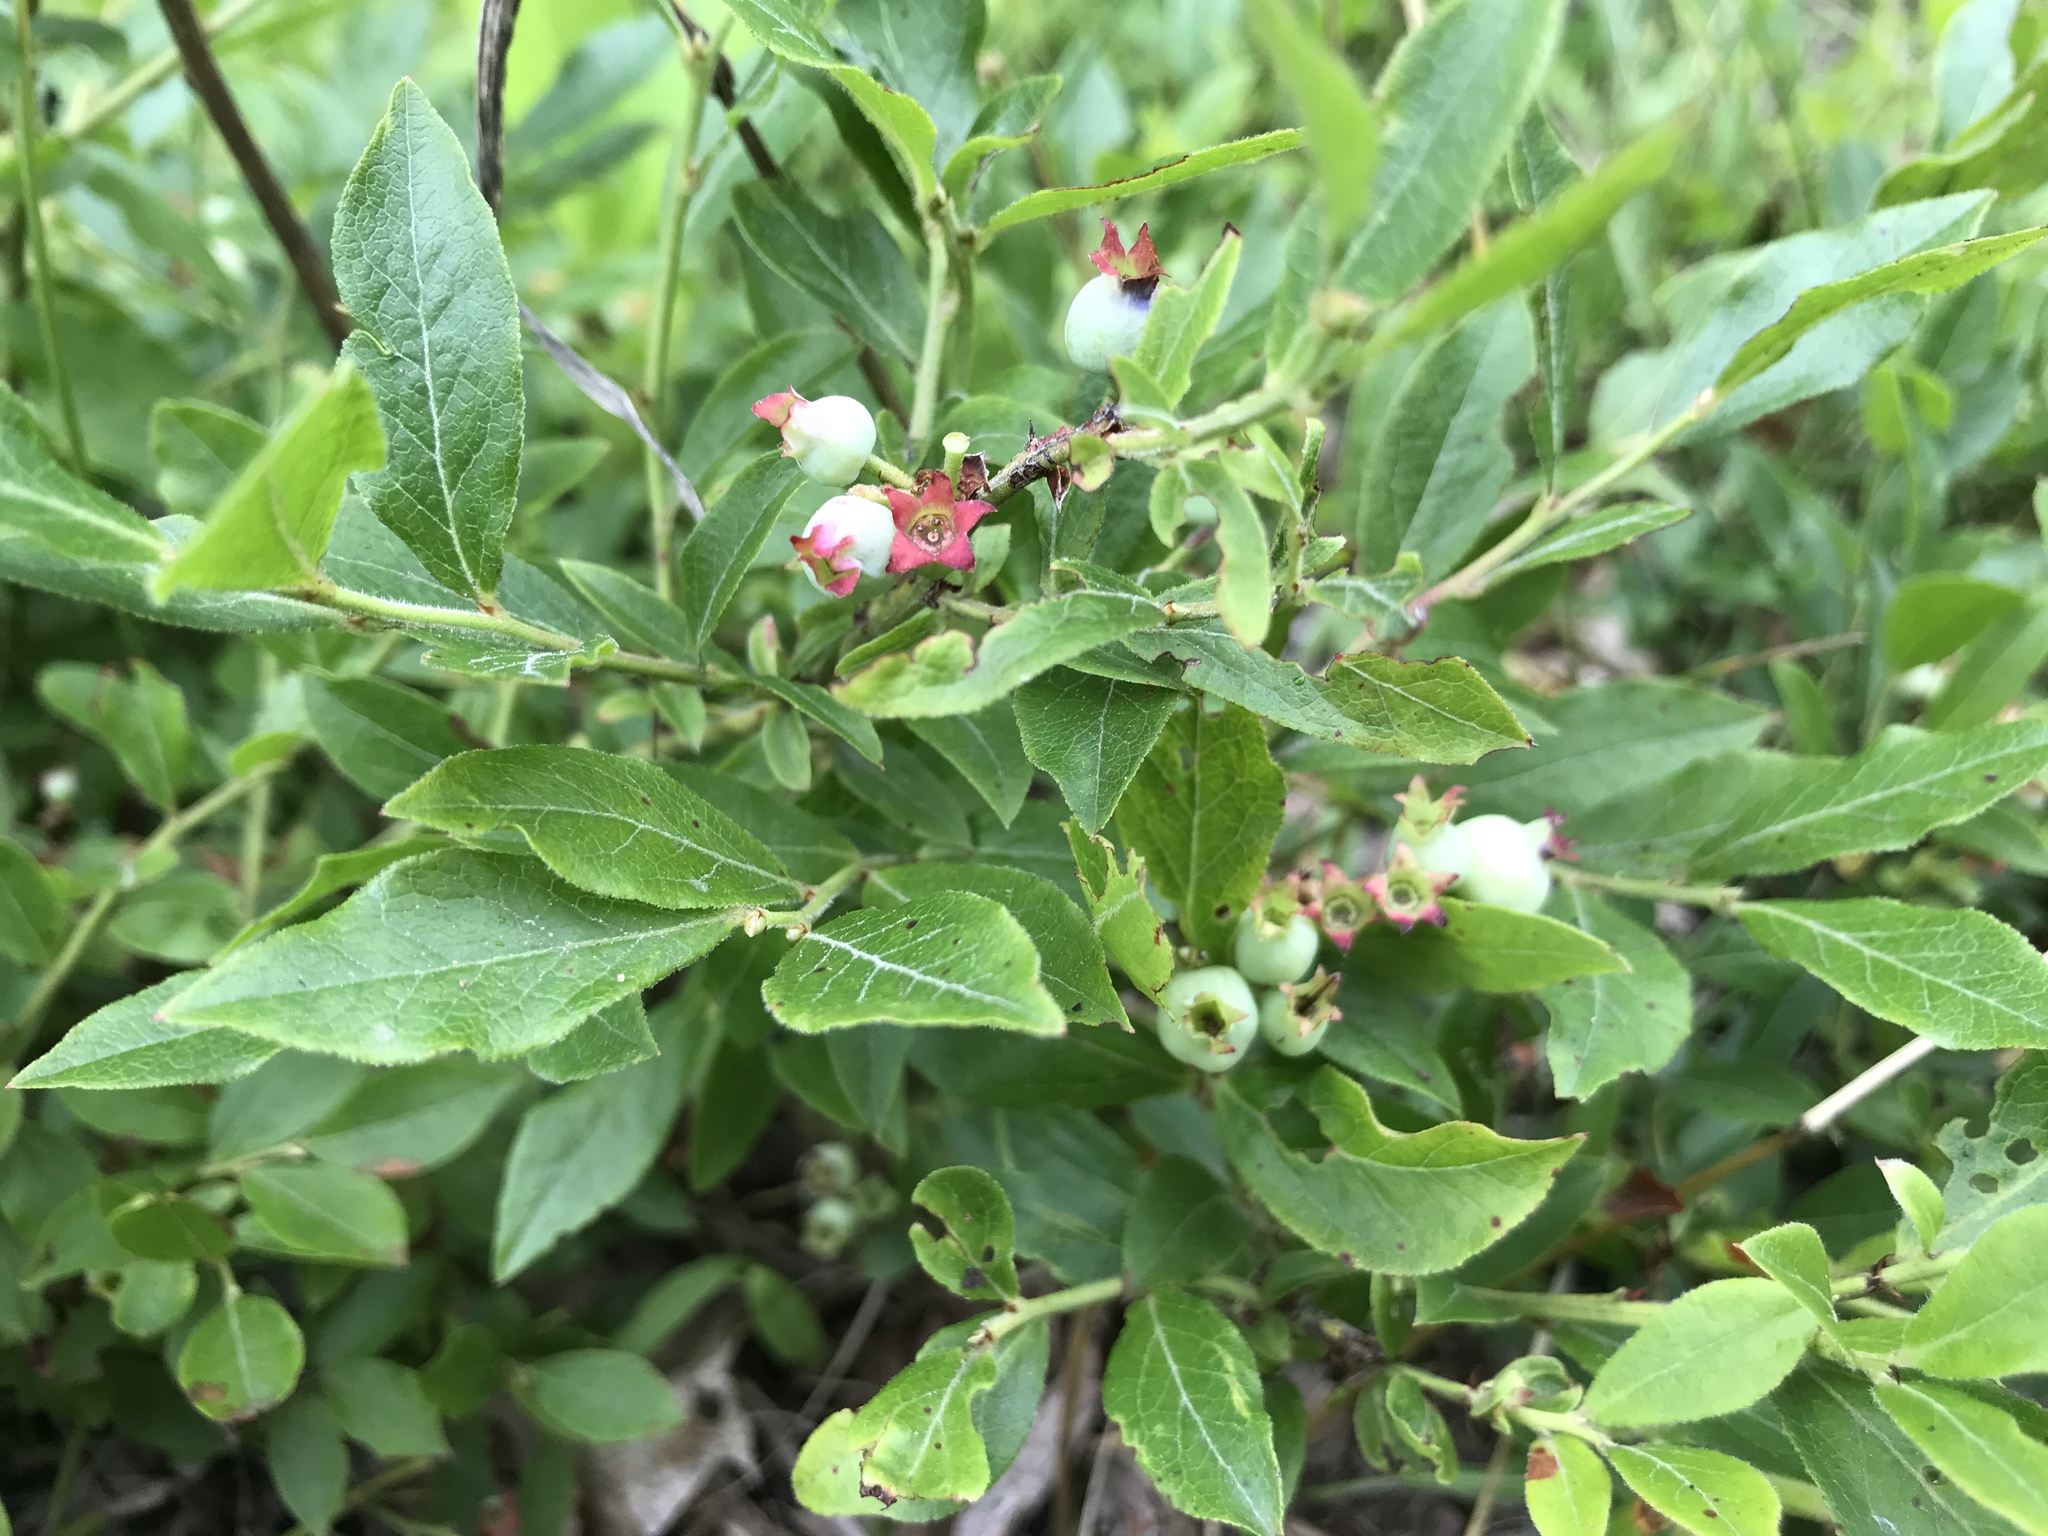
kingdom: Plantae
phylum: Tracheophyta
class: Magnoliopsida
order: Ericales
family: Ericaceae
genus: Vaccinium
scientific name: Vaccinium myrtilloides
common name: Canada blueberry
